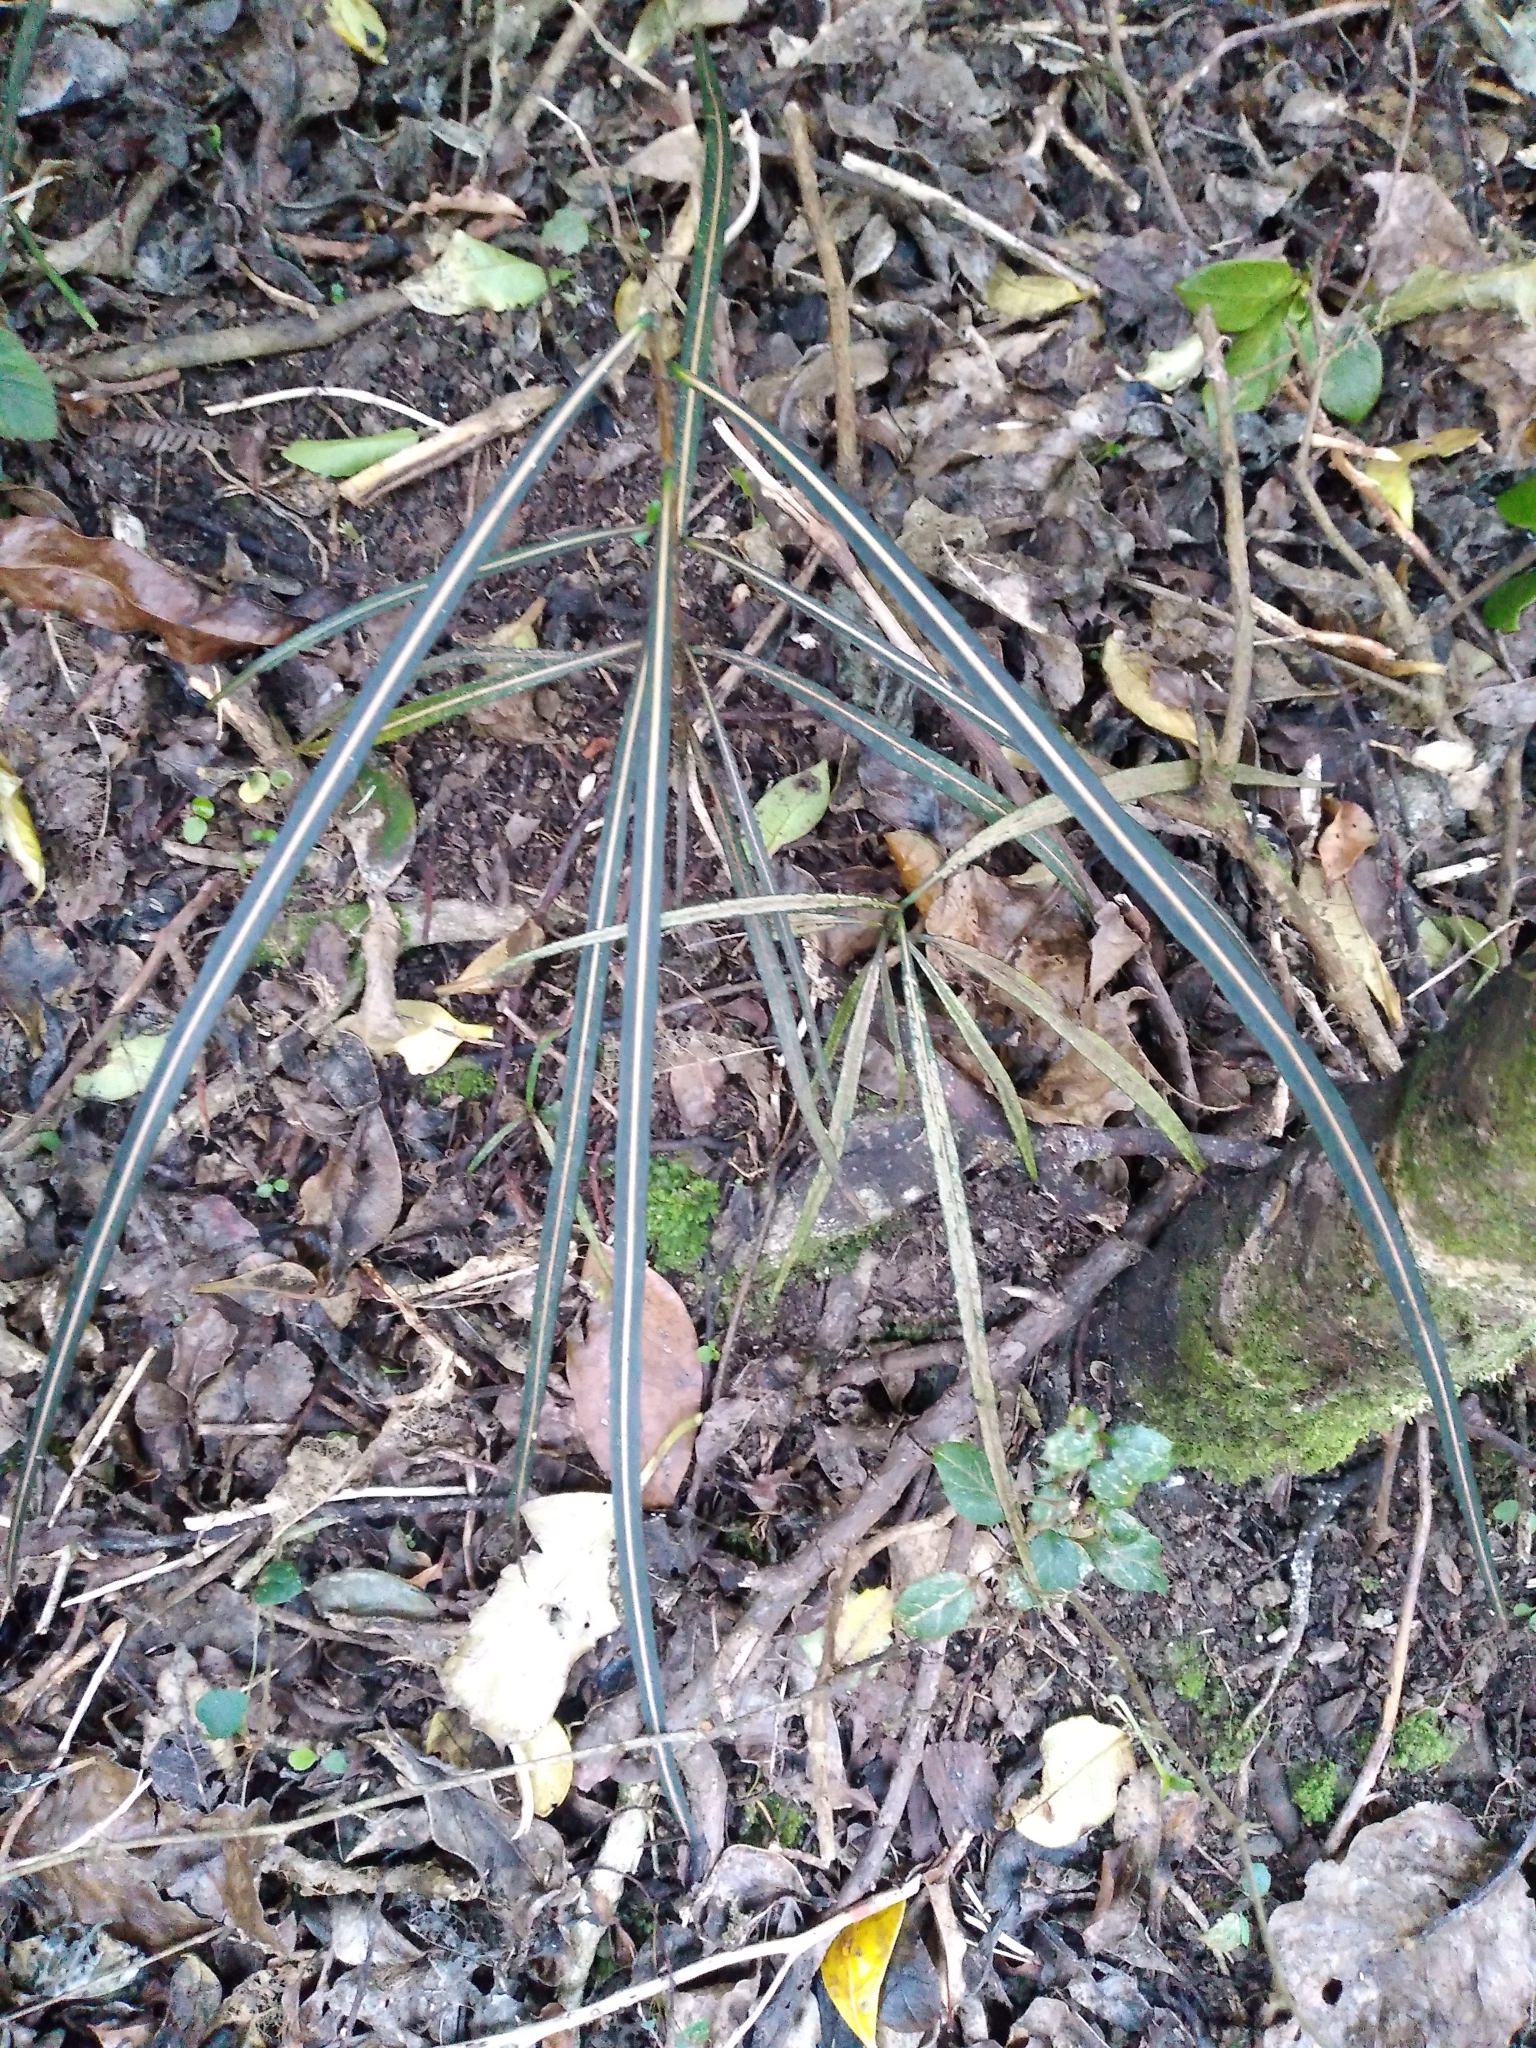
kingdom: Plantae
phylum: Tracheophyta
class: Magnoliopsida
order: Apiales
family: Araliaceae
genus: Pseudopanax
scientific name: Pseudopanax crassifolius
